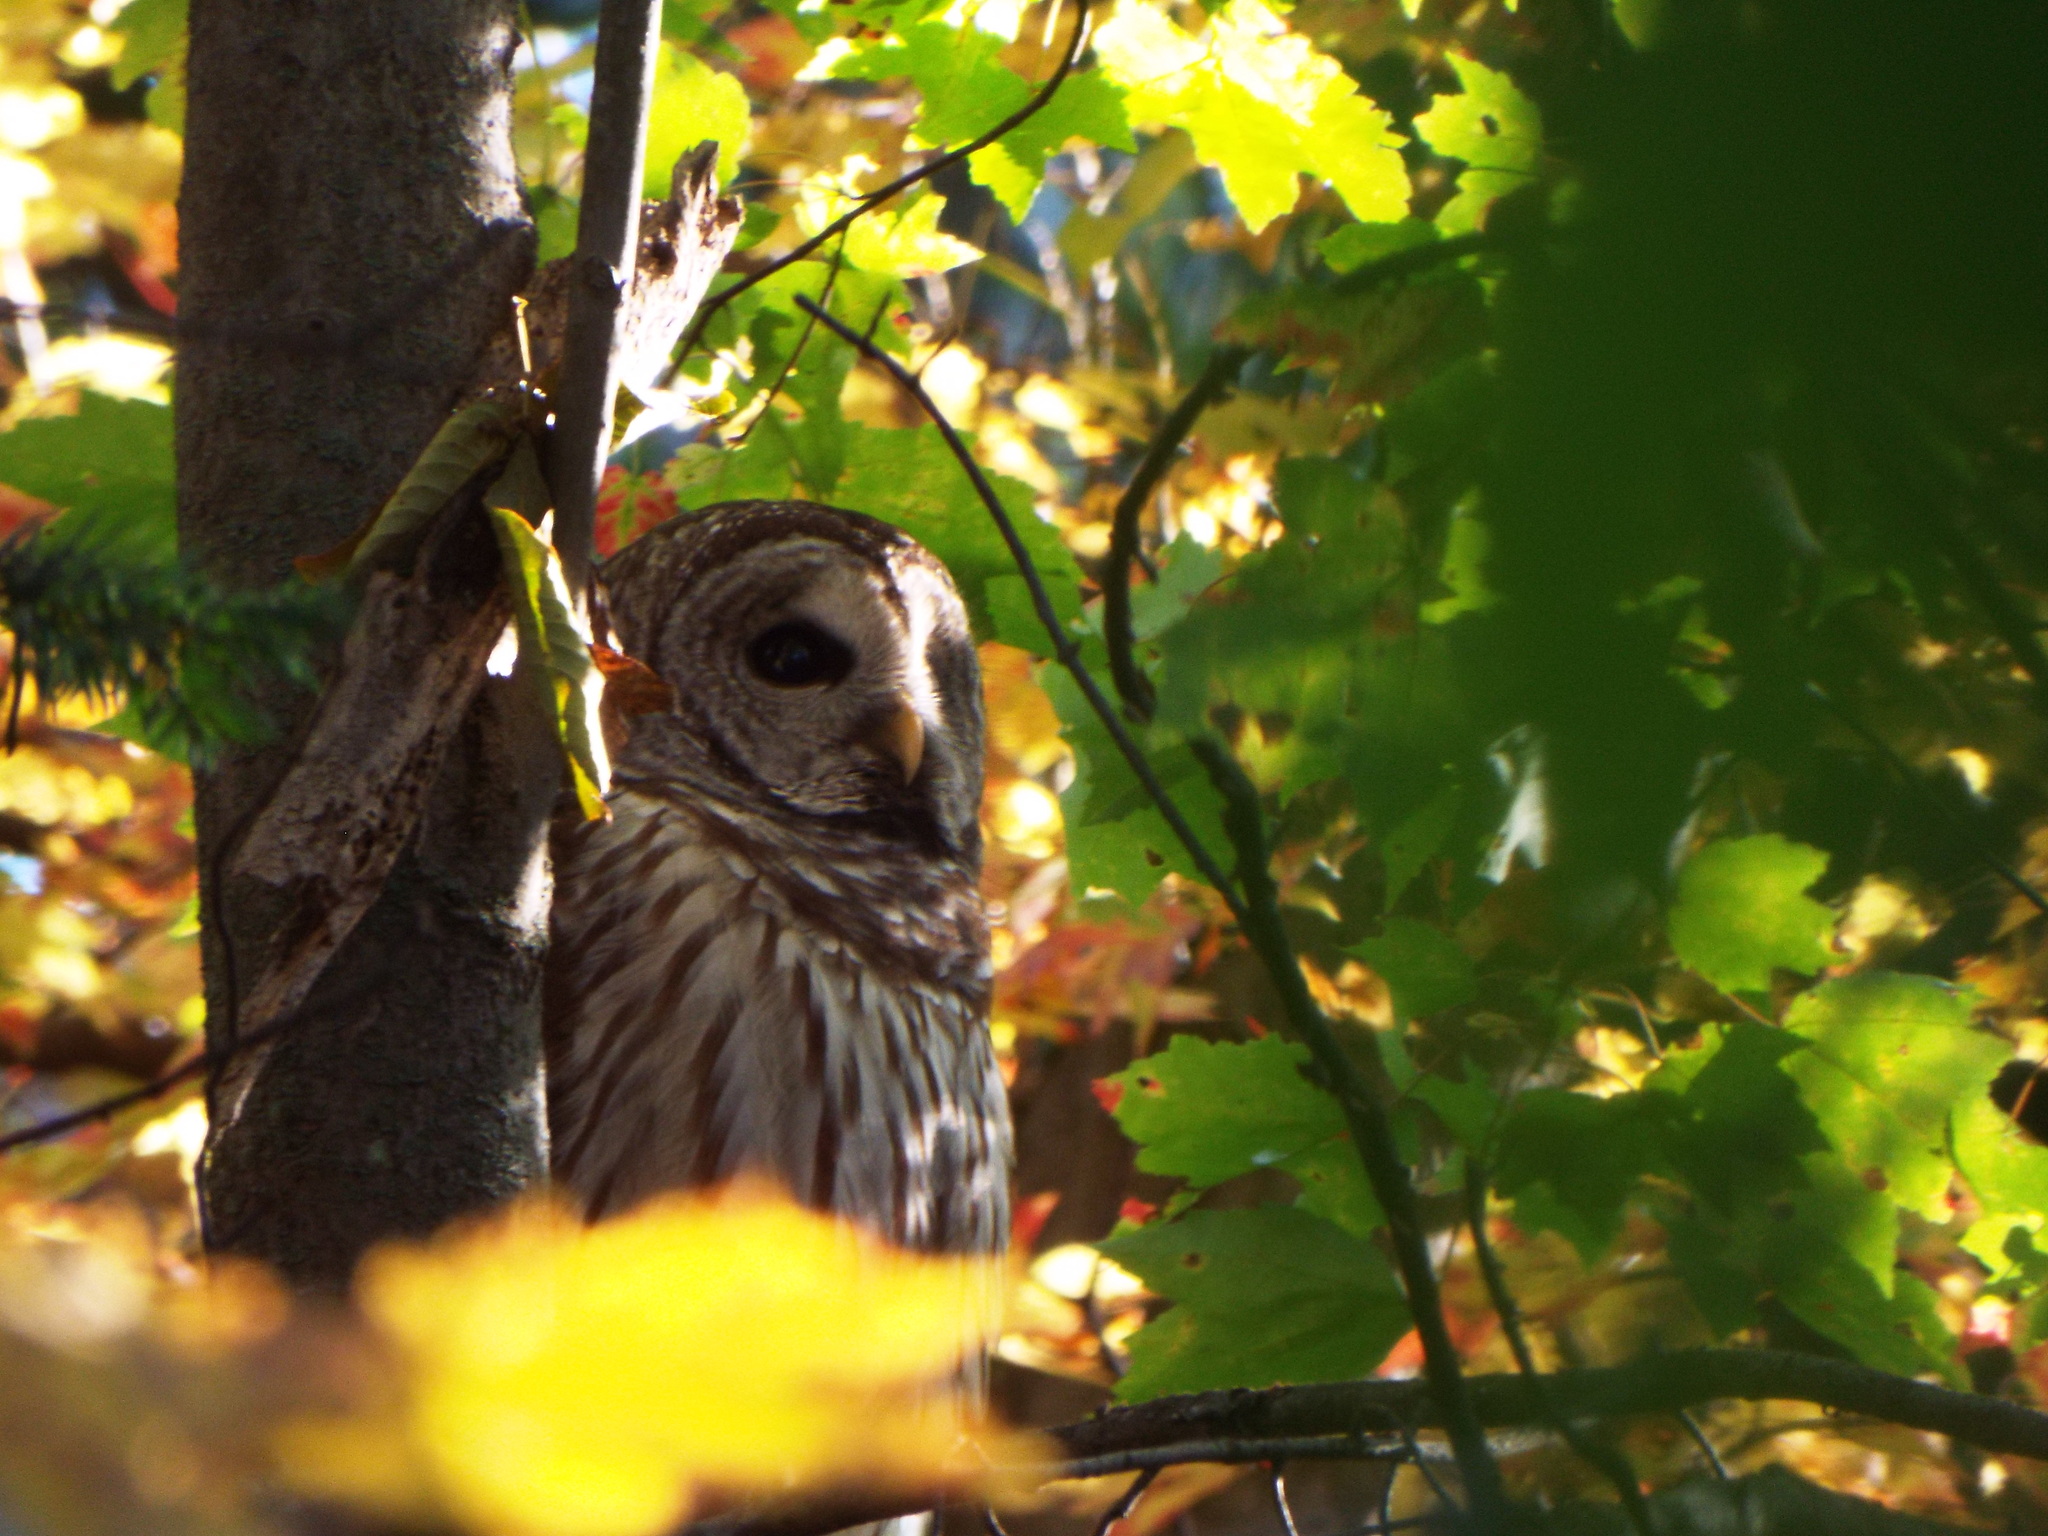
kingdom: Animalia
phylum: Chordata
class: Aves
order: Strigiformes
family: Strigidae
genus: Strix
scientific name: Strix varia
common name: Barred owl
